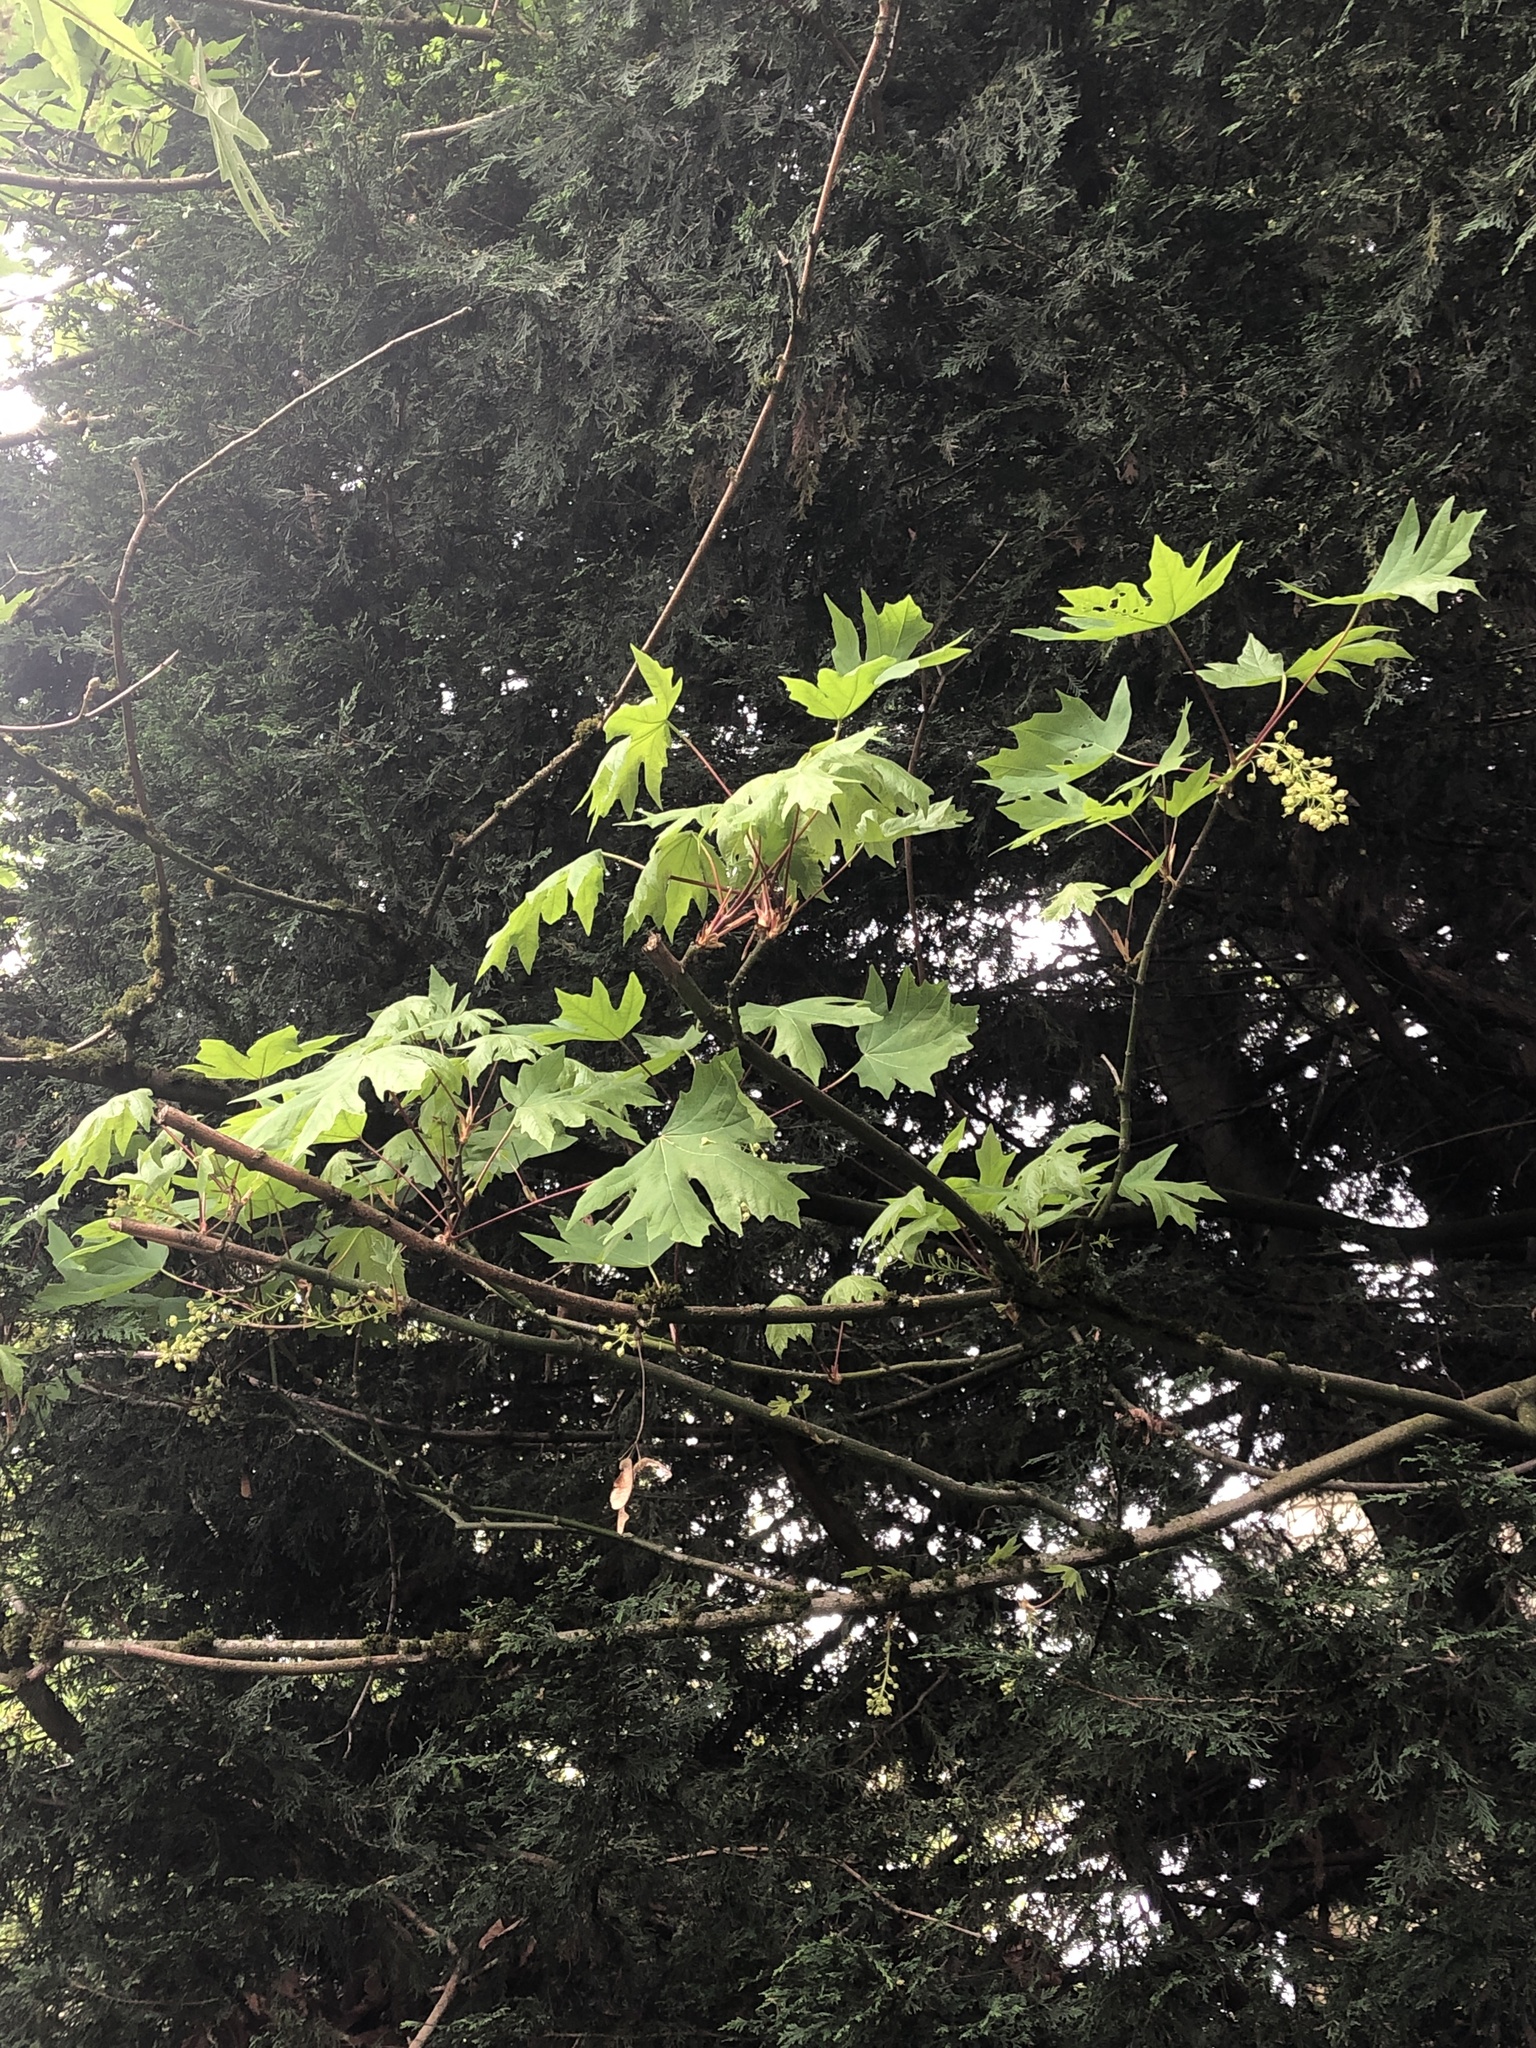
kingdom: Plantae
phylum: Tracheophyta
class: Magnoliopsida
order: Sapindales
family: Sapindaceae
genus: Acer
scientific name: Acer macrophyllum
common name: Oregon maple
